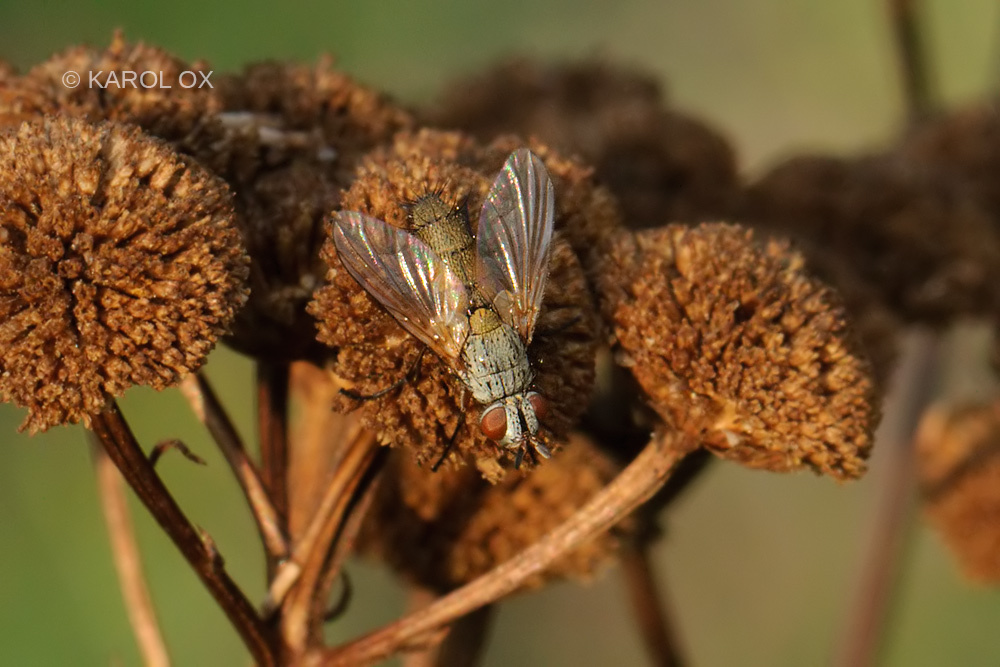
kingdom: Animalia
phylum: Arthropoda
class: Insecta
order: Diptera
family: Tachinidae
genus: Solieria
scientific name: Solieria fenestrata
